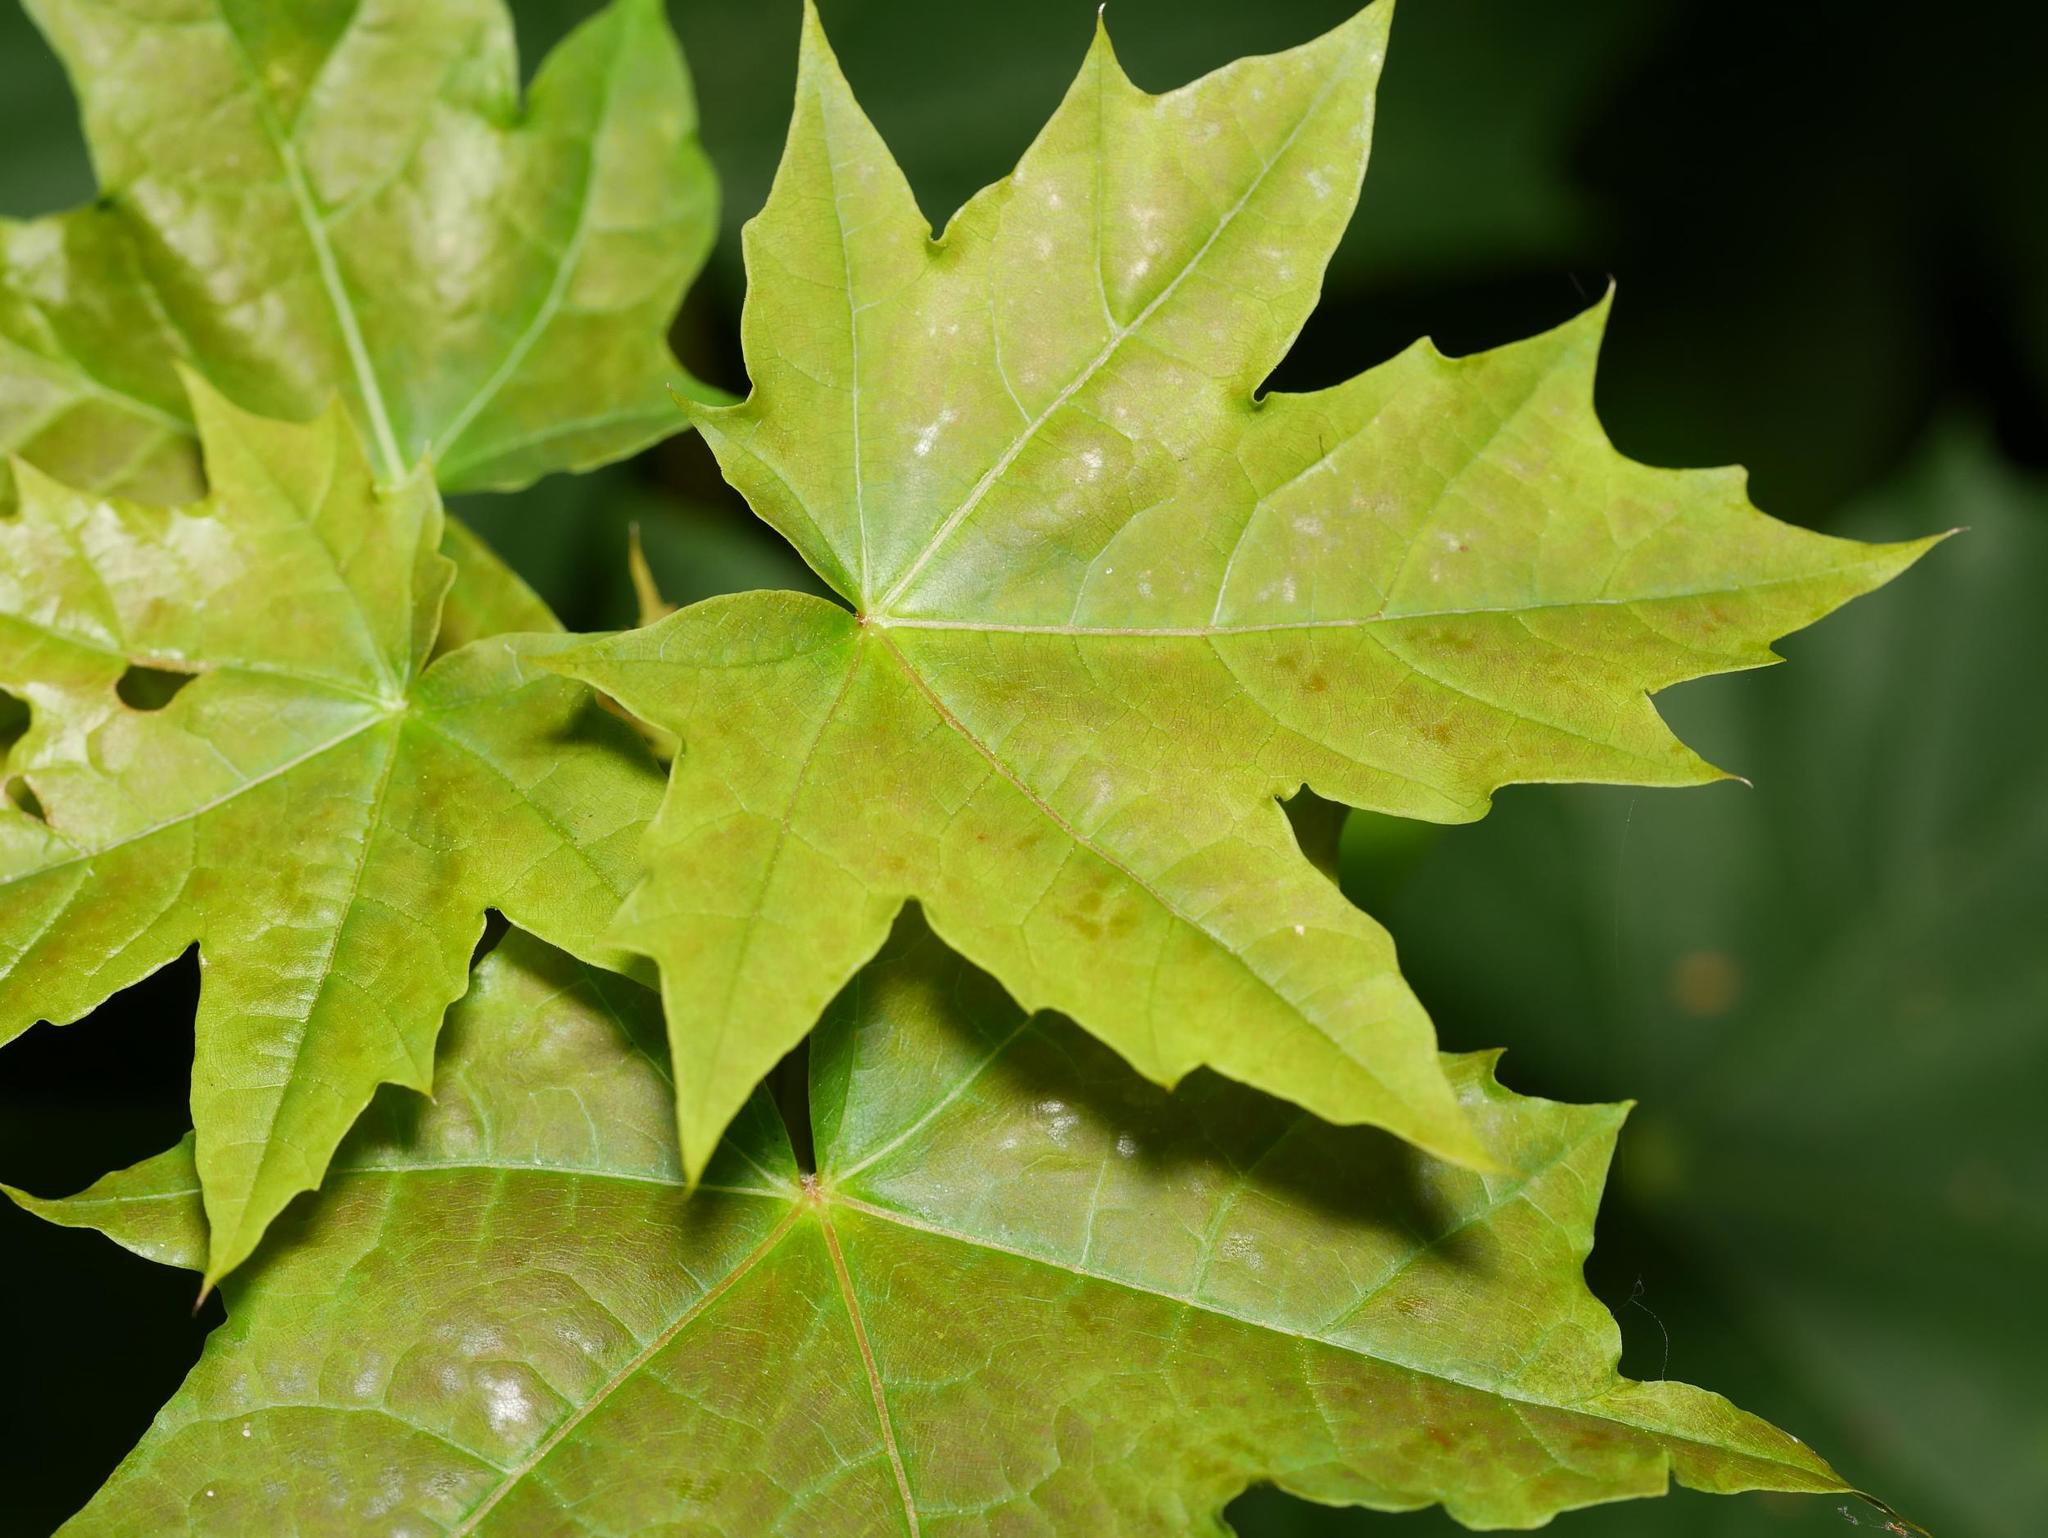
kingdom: Plantae
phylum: Tracheophyta
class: Magnoliopsida
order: Sapindales
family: Sapindaceae
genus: Acer
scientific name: Acer platanoides
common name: Norway maple
